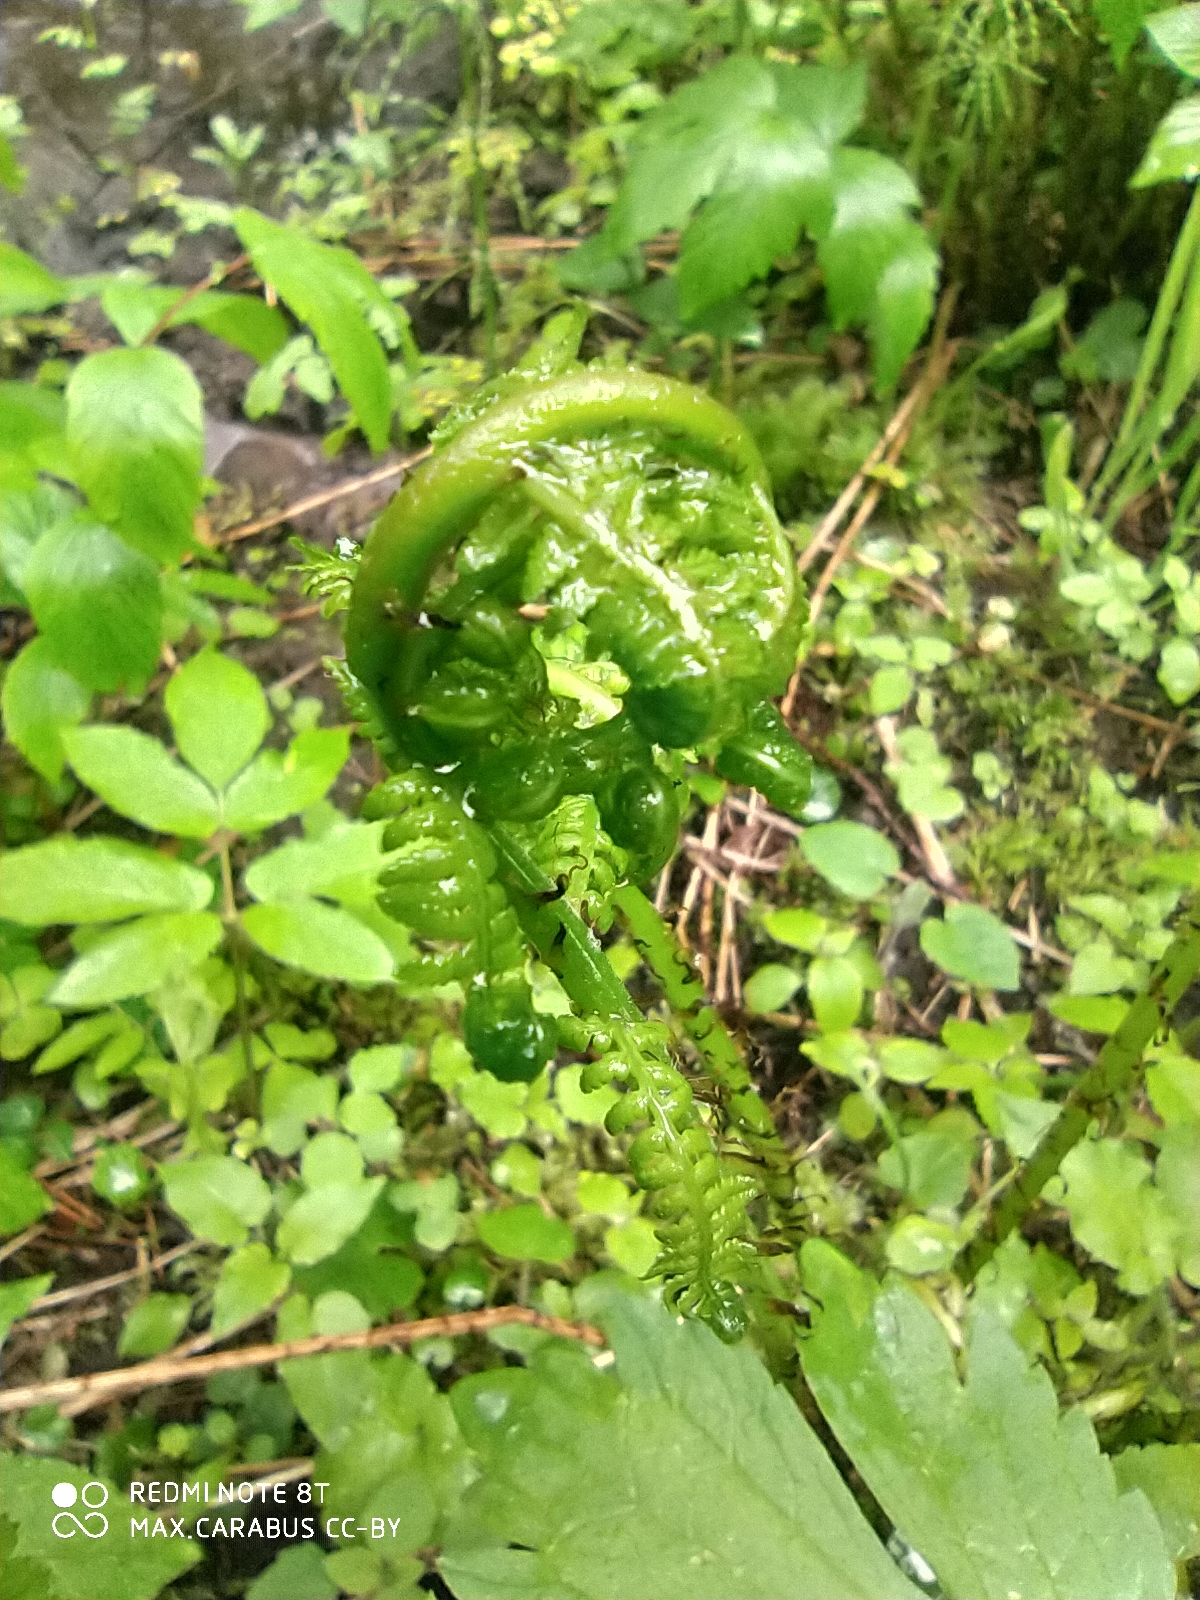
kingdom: Plantae
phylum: Tracheophyta
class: Polypodiopsida
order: Polypodiales
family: Athyriaceae
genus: Athyrium
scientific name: Athyrium filix-femina
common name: Lady fern
